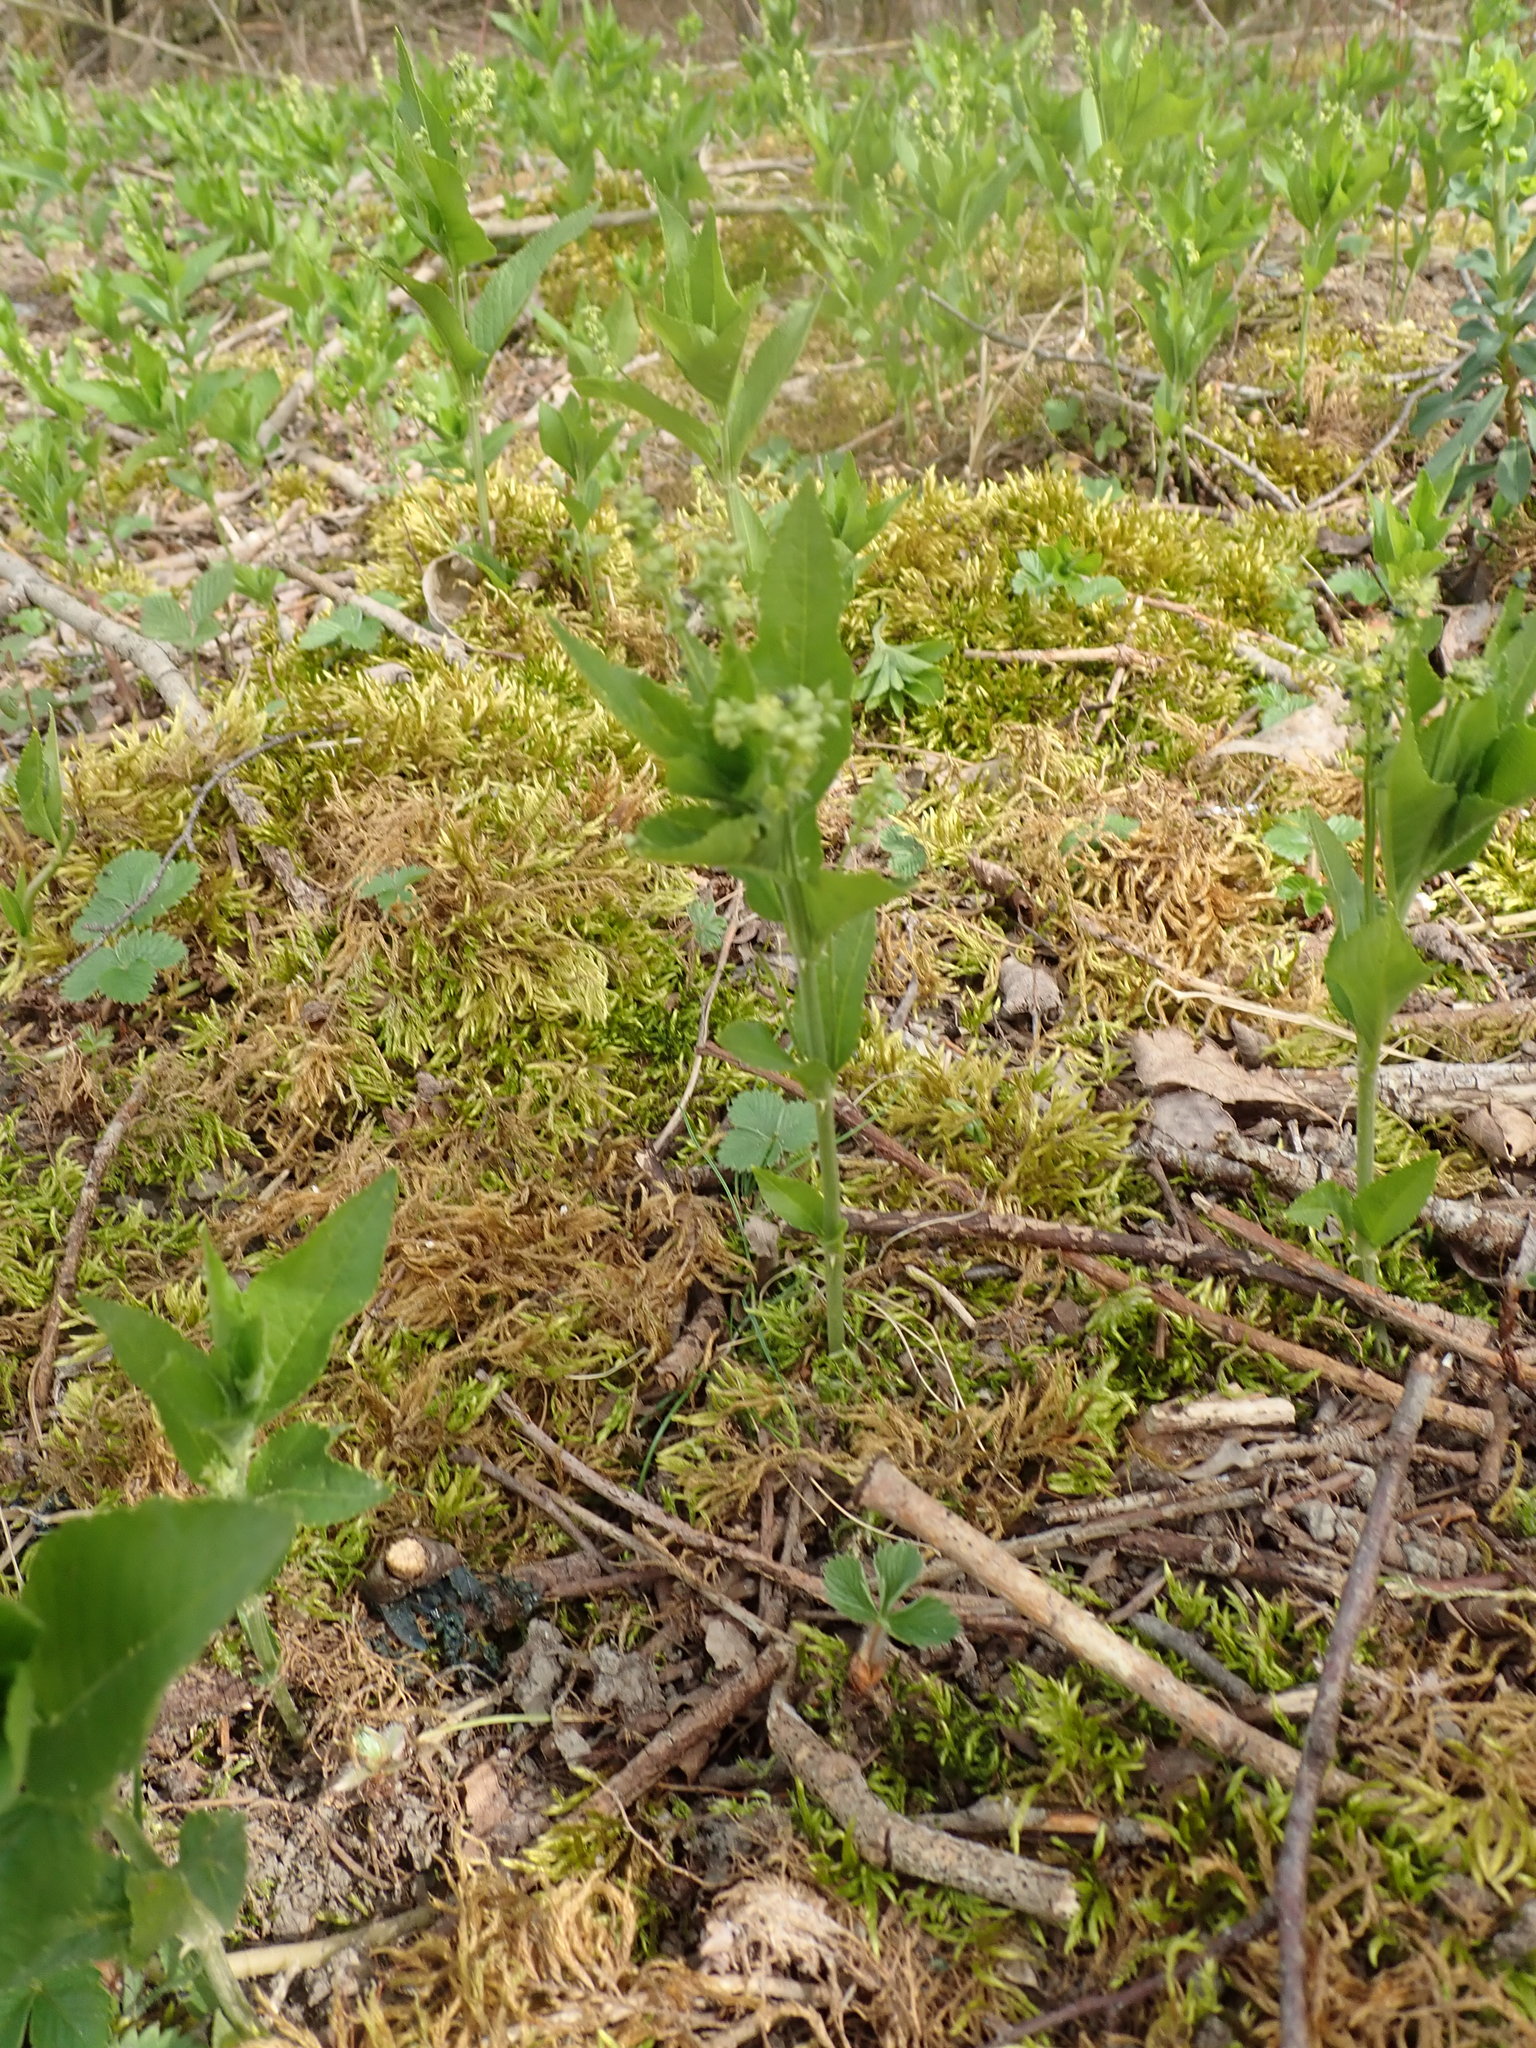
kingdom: Plantae
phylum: Tracheophyta
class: Magnoliopsida
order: Malpighiales
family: Euphorbiaceae
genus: Mercurialis
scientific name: Mercurialis perennis
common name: Dog mercury
